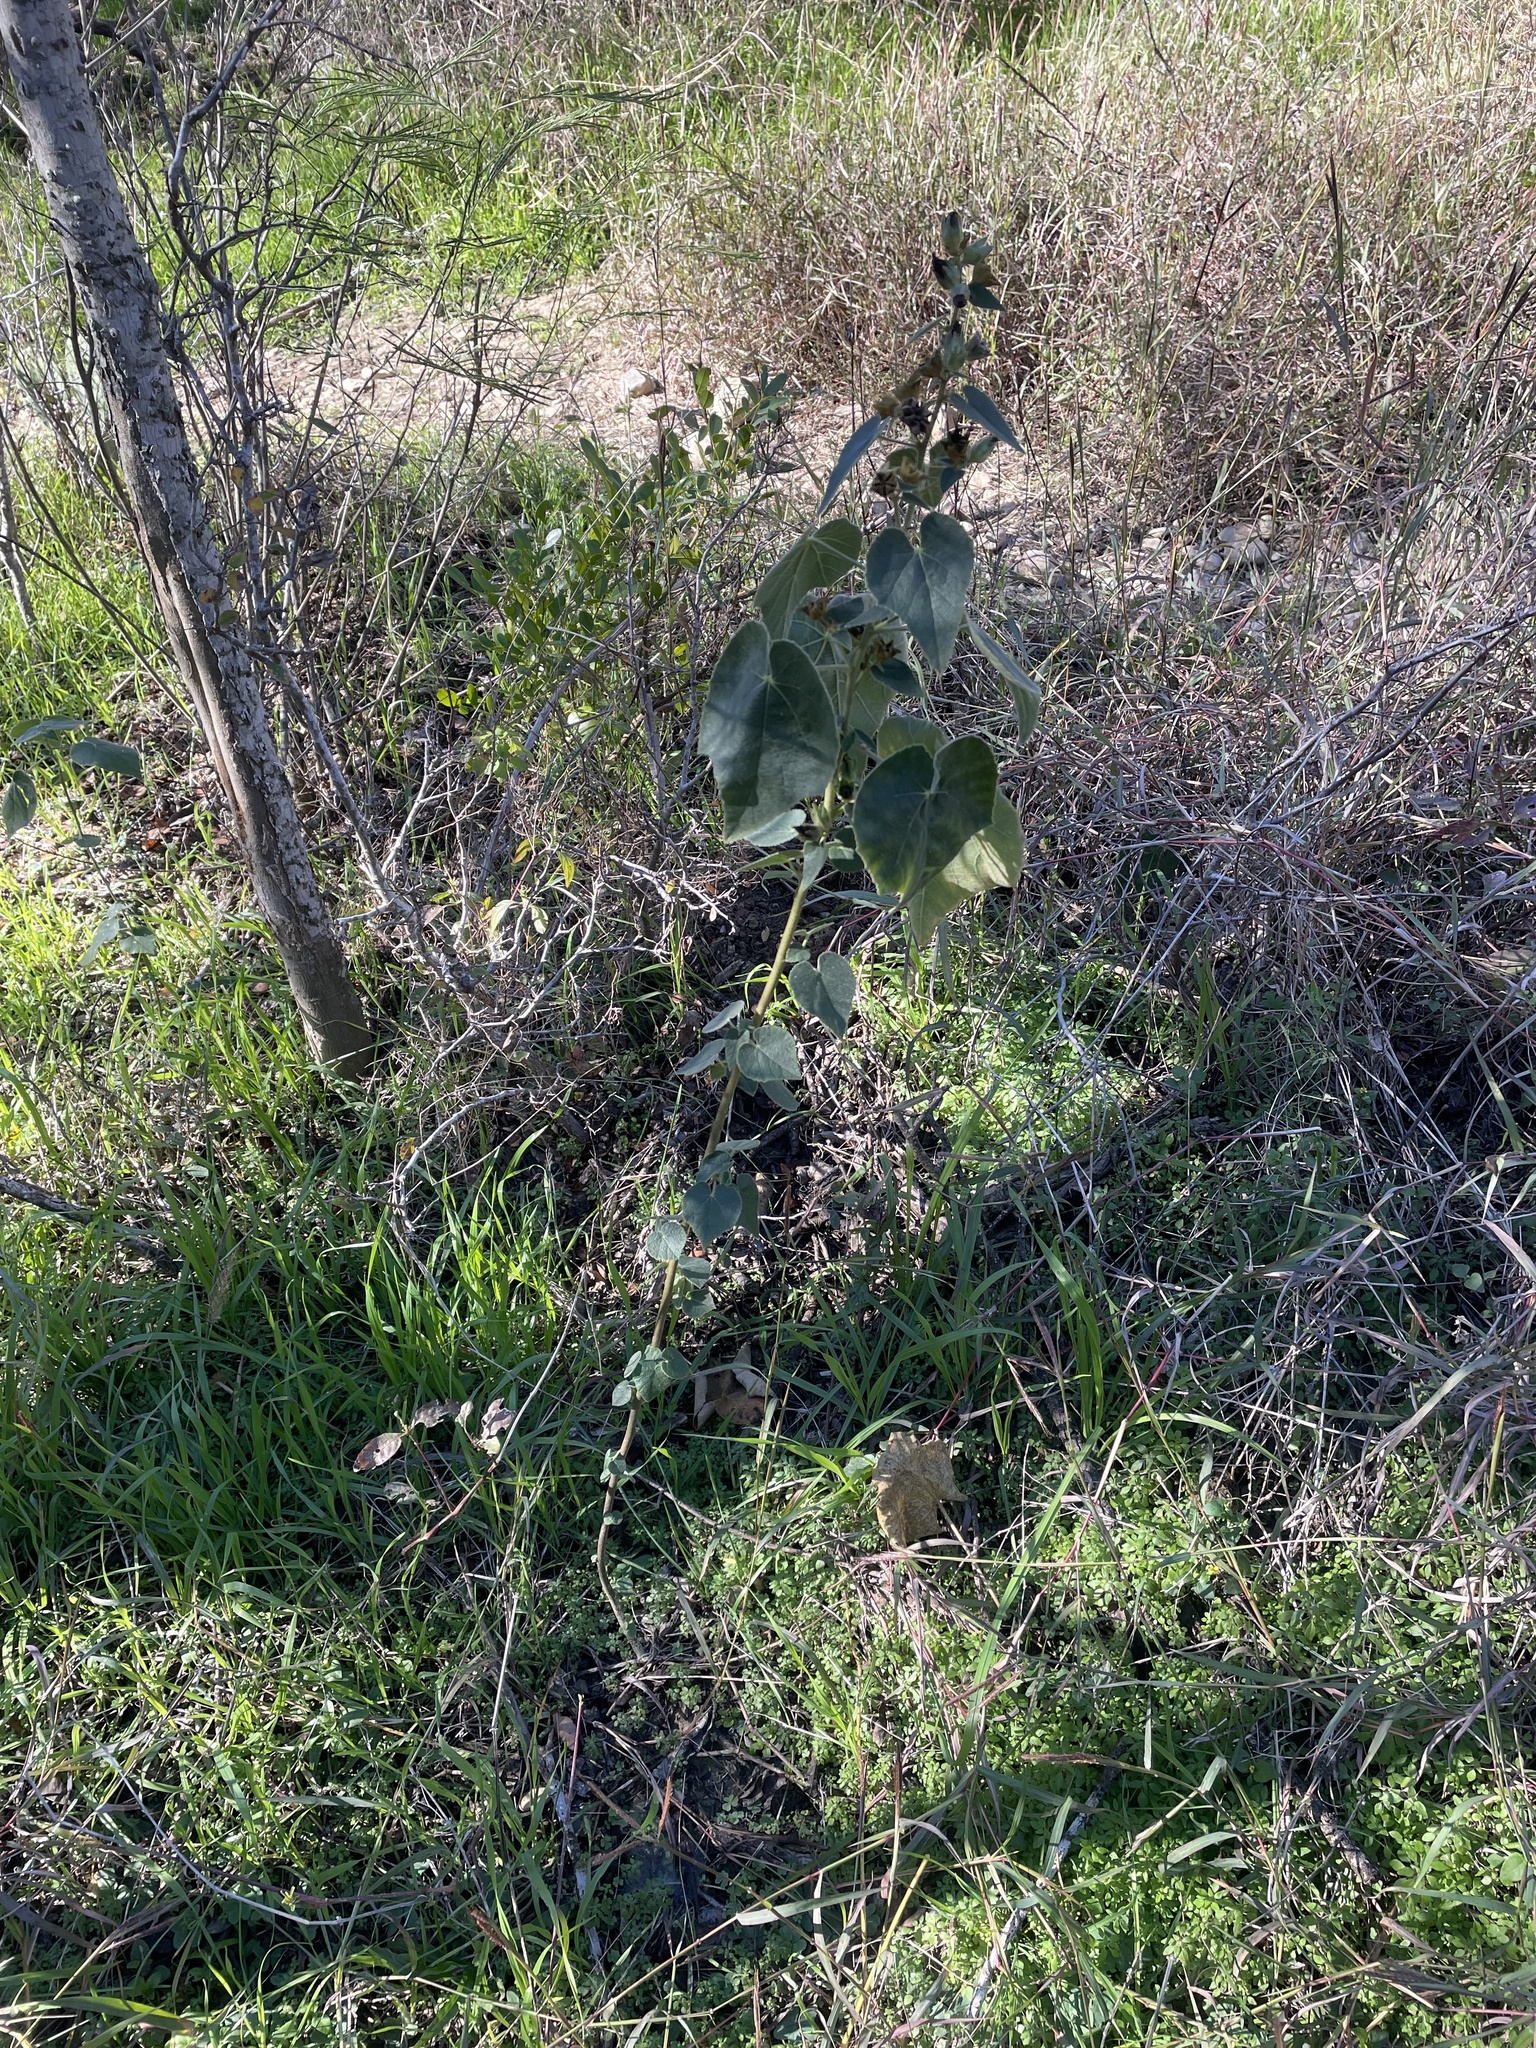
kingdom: Plantae
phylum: Tracheophyta
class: Magnoliopsida
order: Malvales
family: Malvaceae
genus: Allowissadula
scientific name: Allowissadula holosericea
